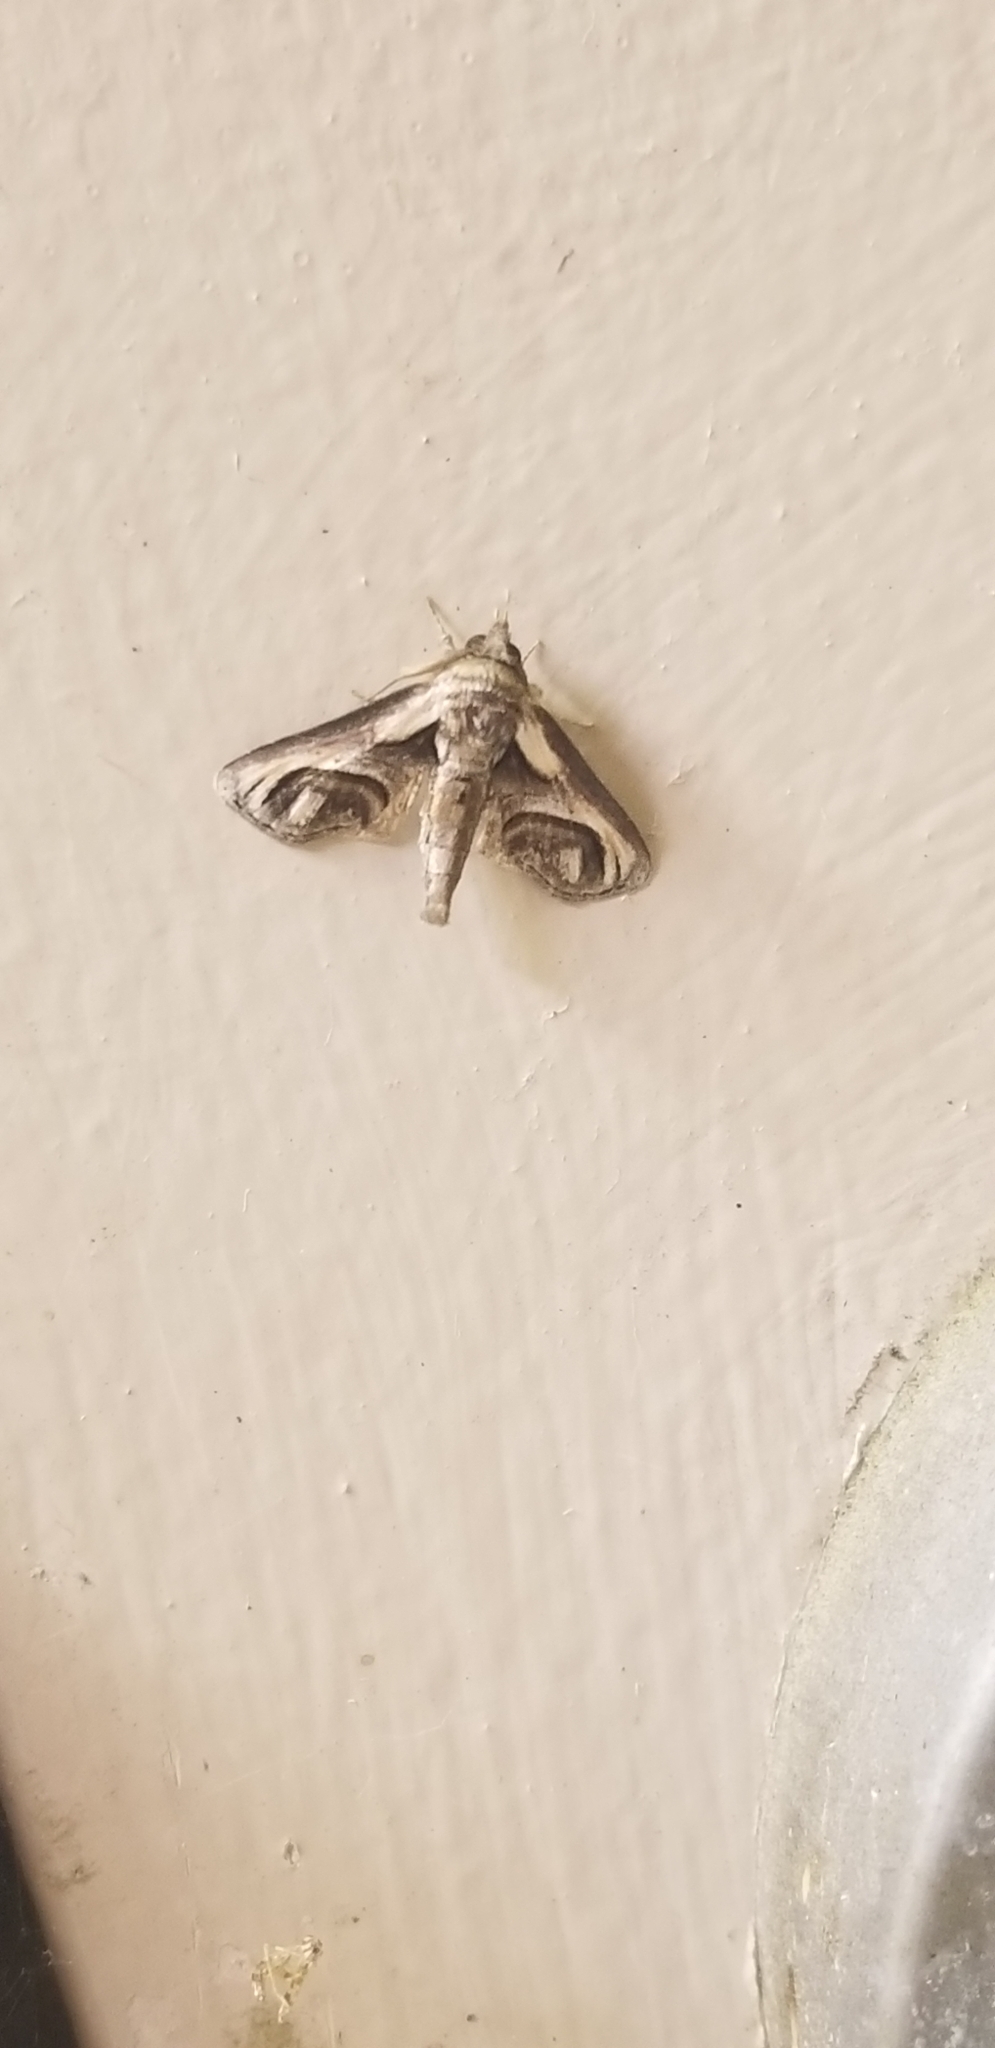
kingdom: Animalia
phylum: Arthropoda
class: Insecta
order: Lepidoptera
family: Euteliidae
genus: Paectes
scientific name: Paectes oculatrix
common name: Eyed paectes moth
